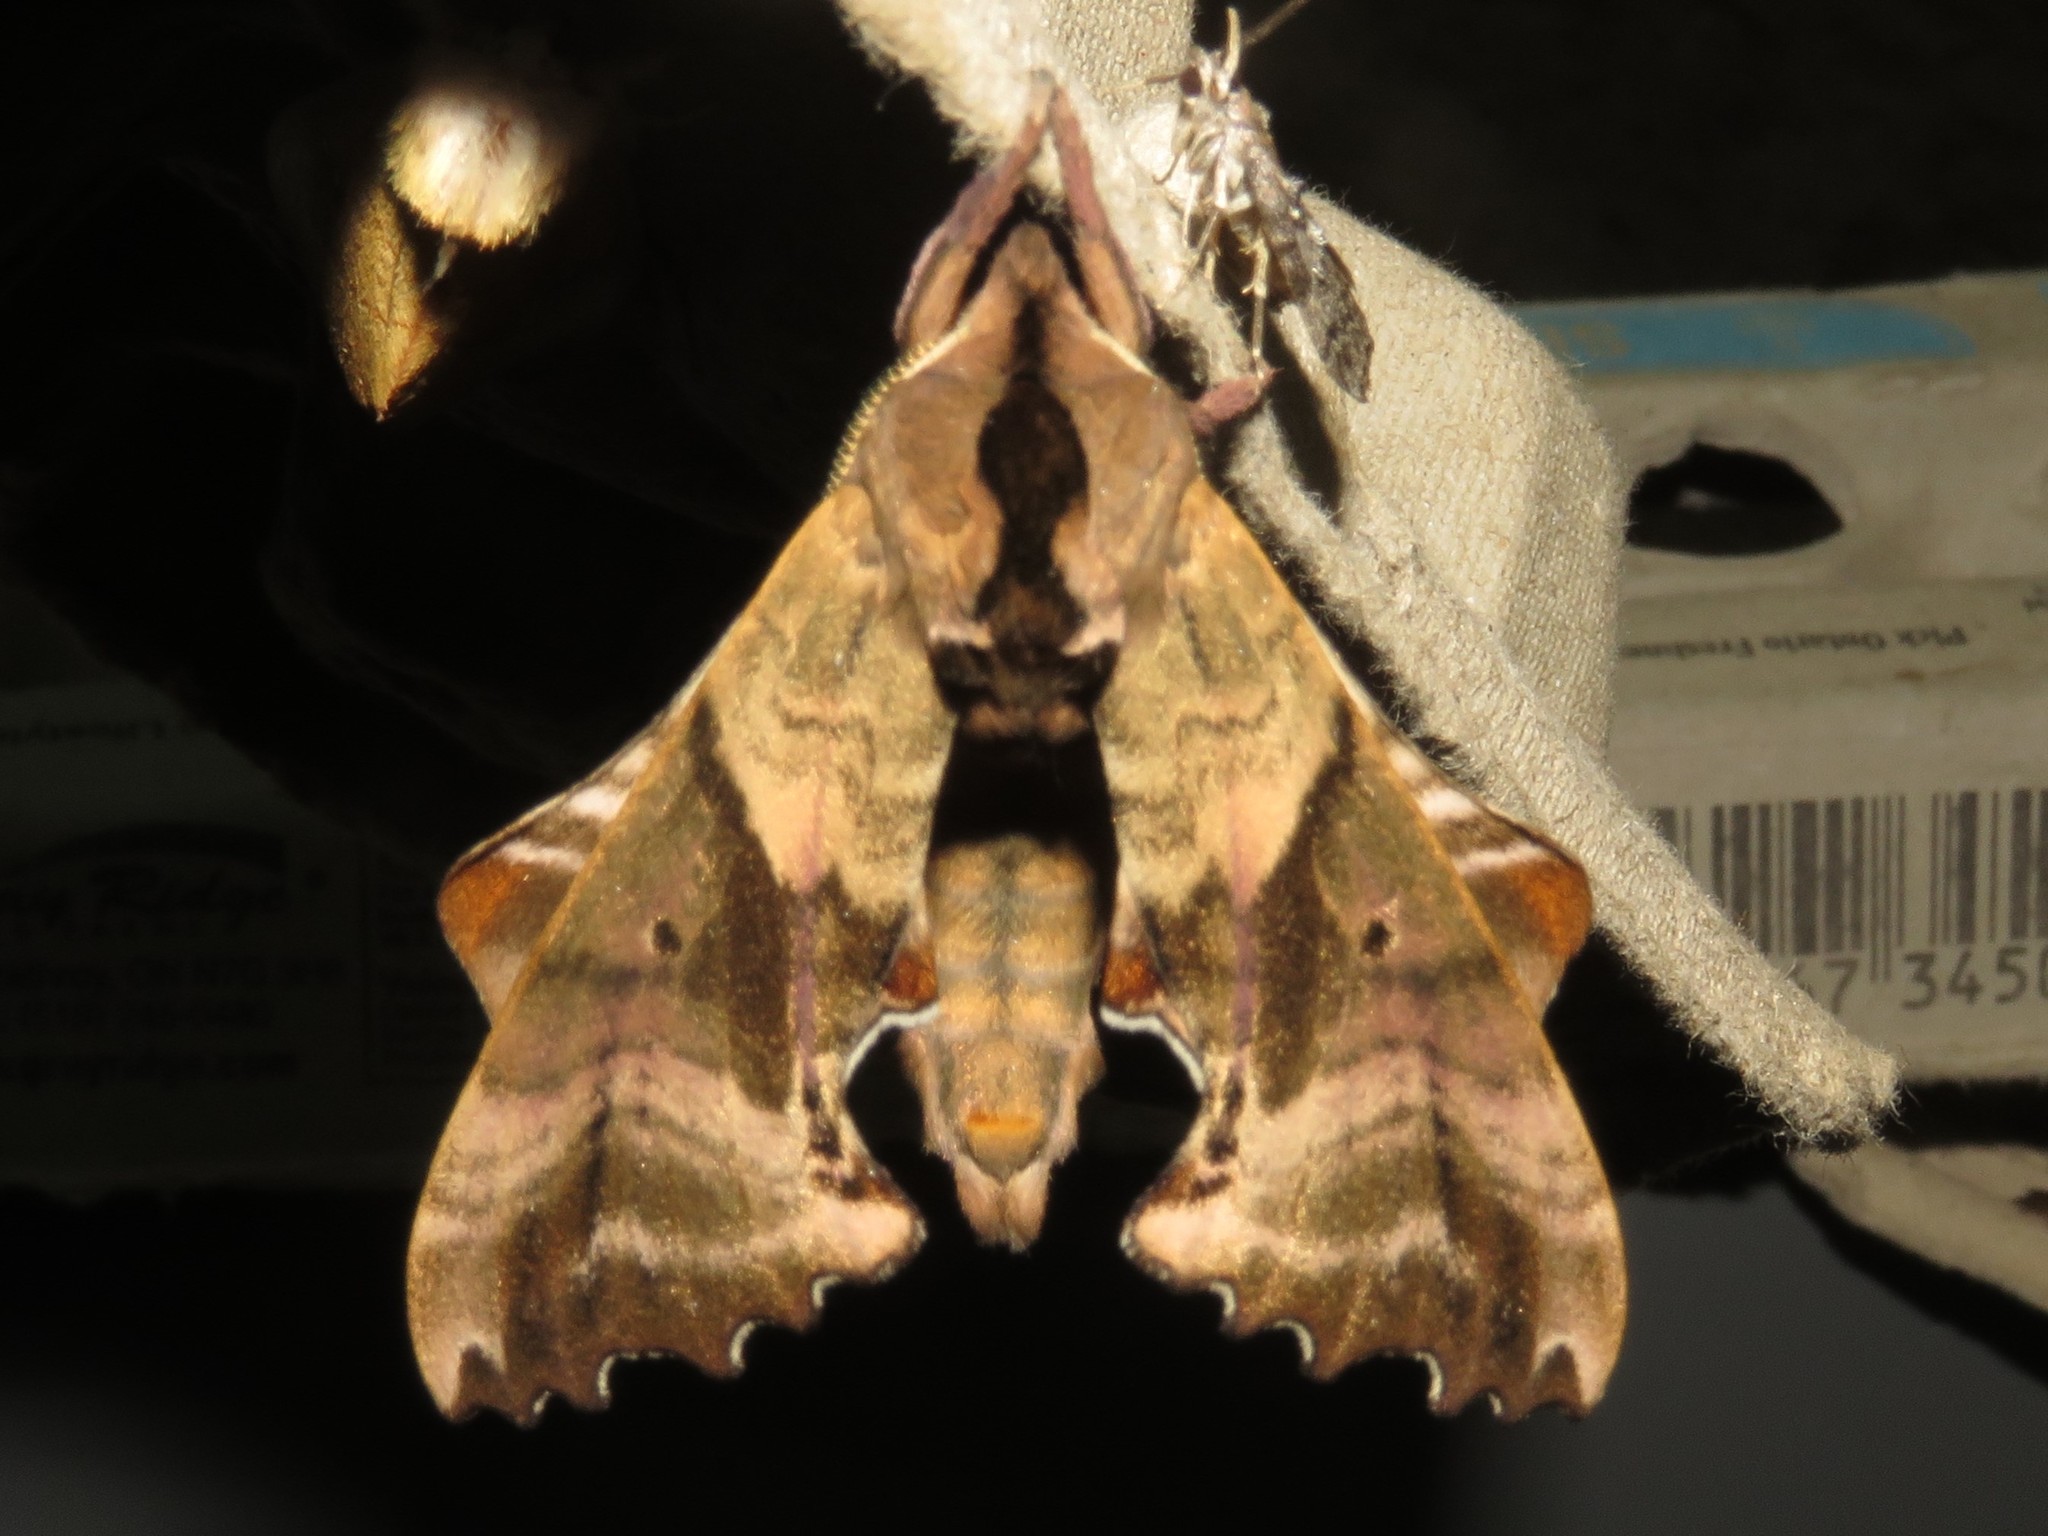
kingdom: Animalia
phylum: Arthropoda
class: Insecta
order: Lepidoptera
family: Sphingidae
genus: Paonias
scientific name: Paonias excaecata
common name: Blind-eyed sphinx
